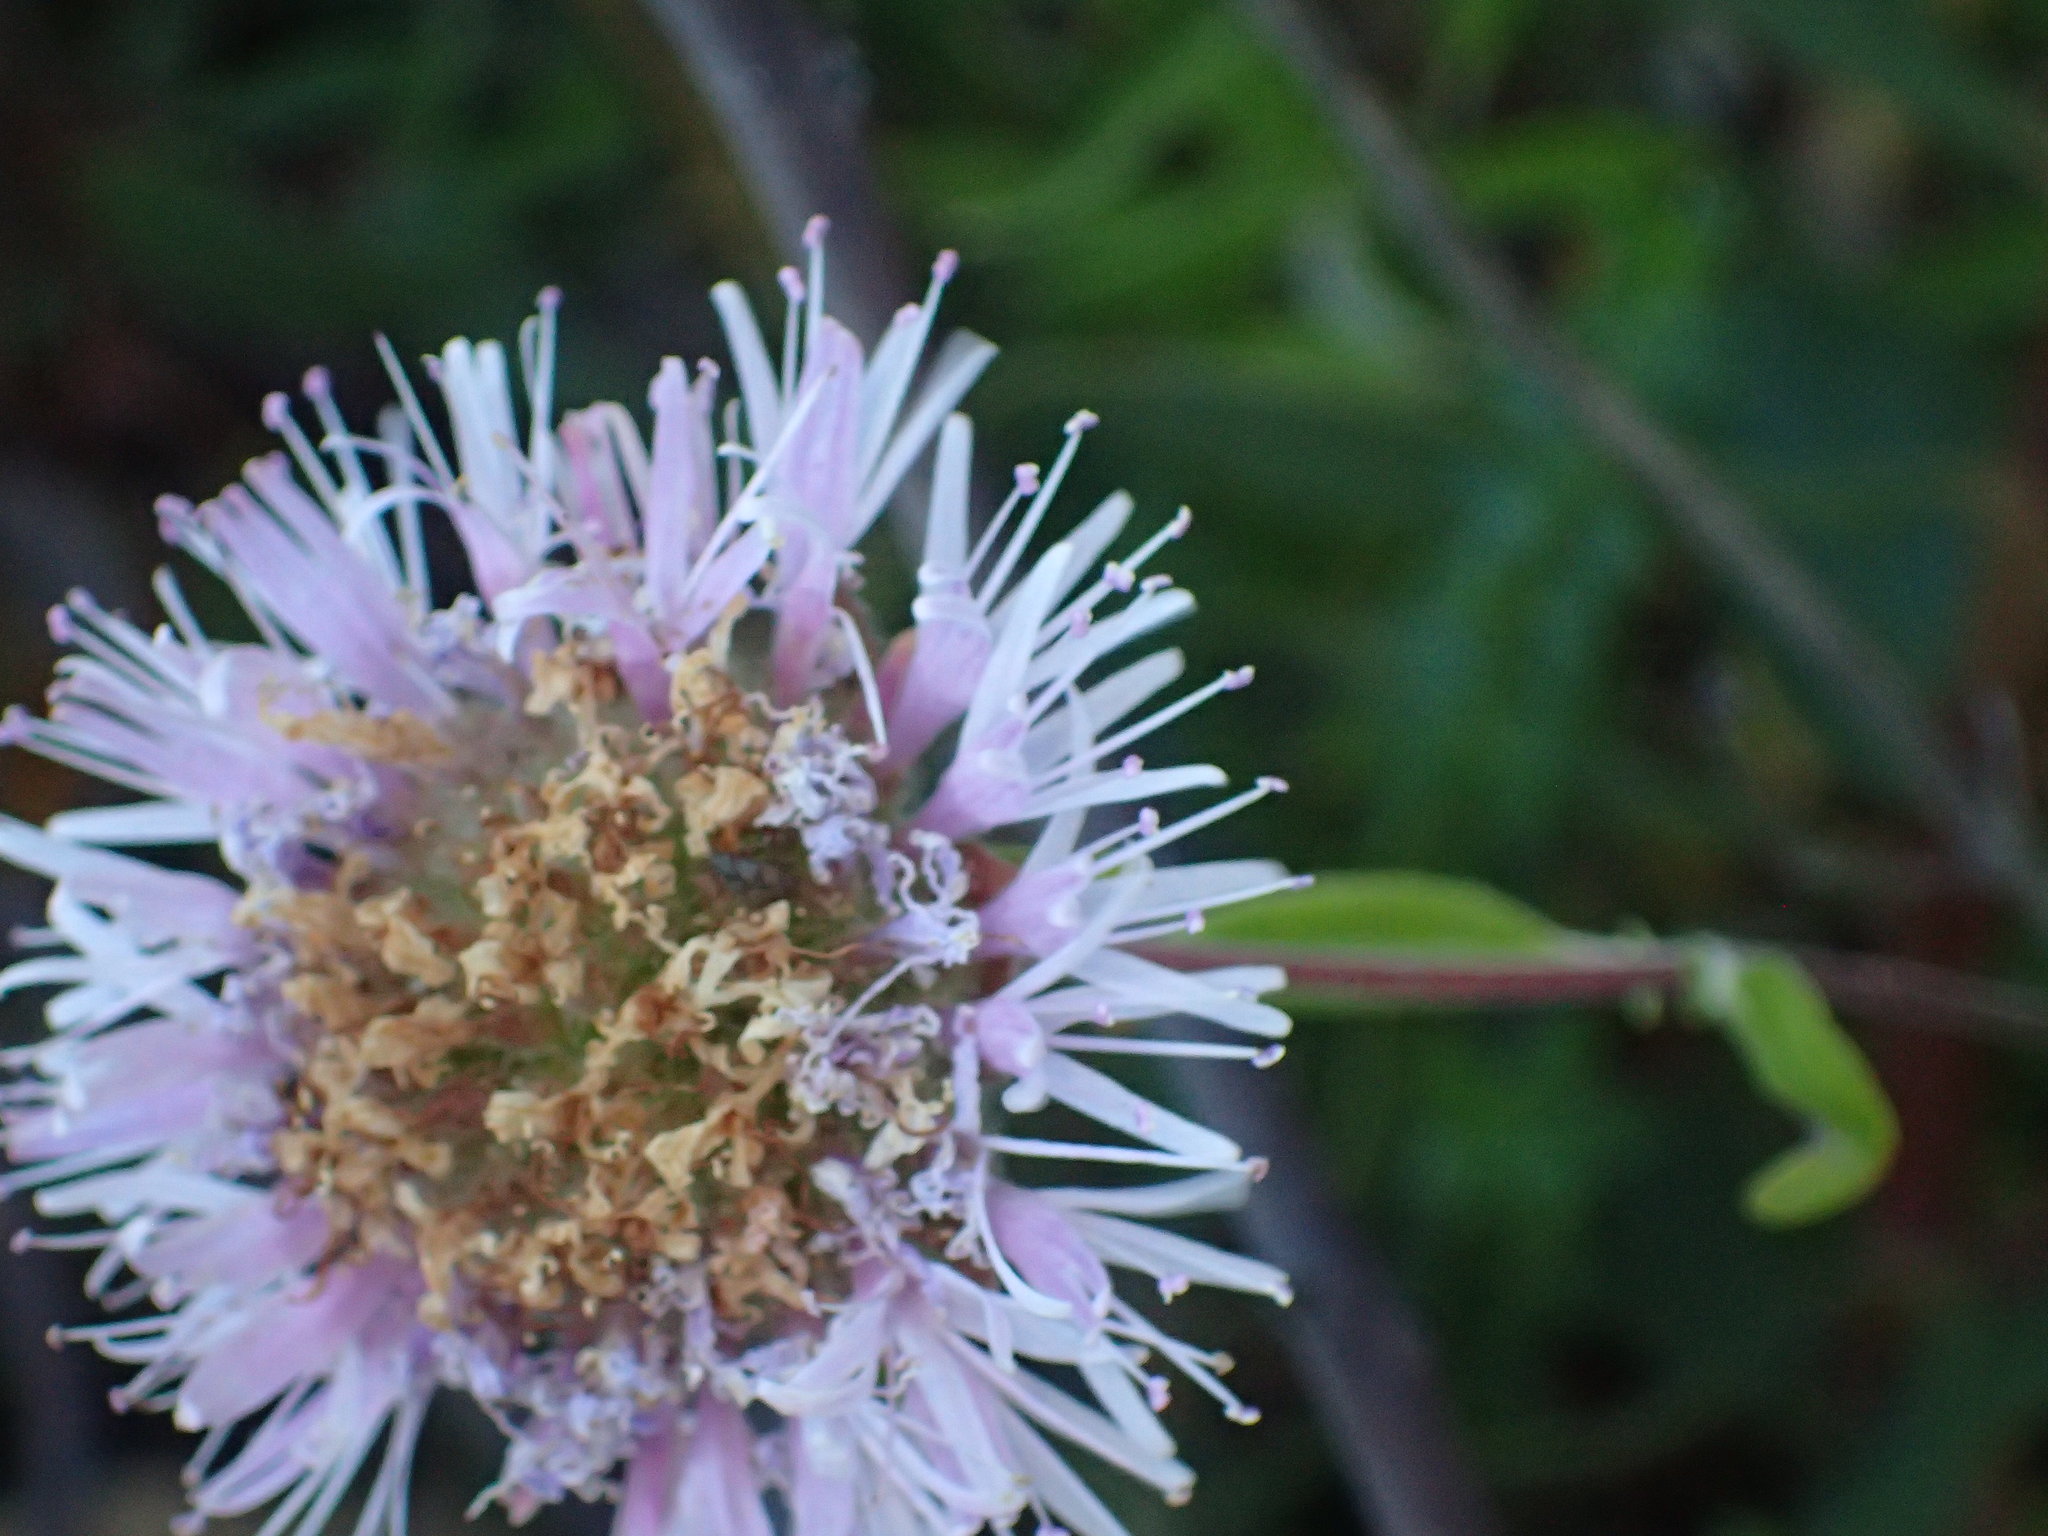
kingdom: Plantae
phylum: Tracheophyta
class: Magnoliopsida
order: Lamiales
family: Lamiaceae
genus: Monardella
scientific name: Monardella hypoleuca
